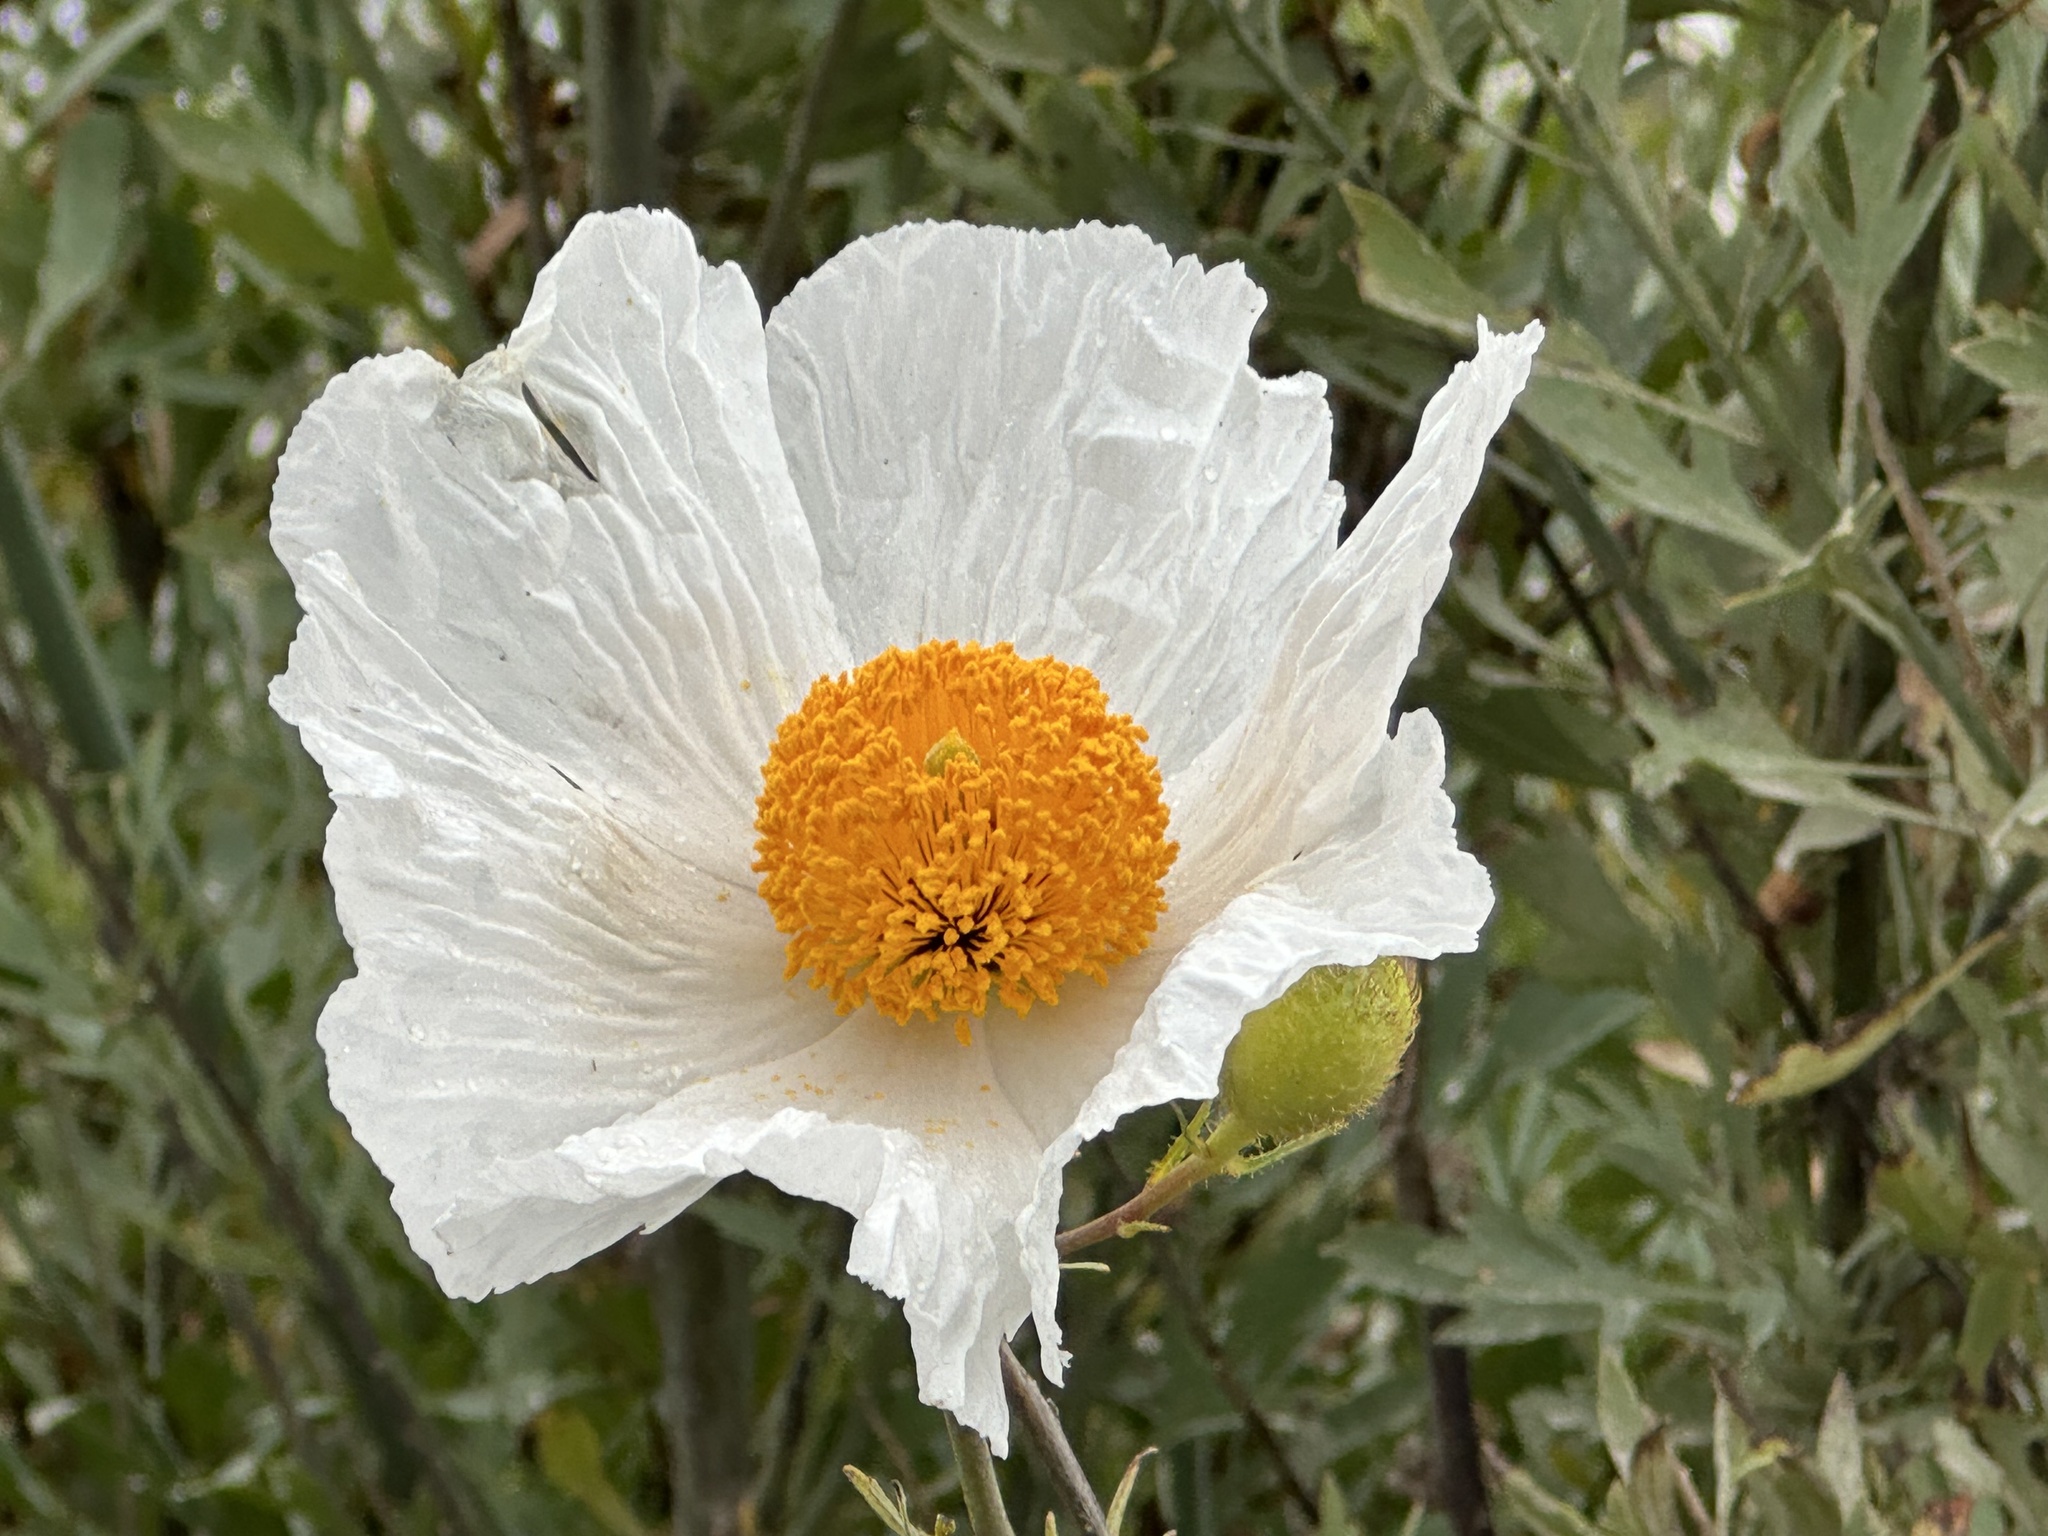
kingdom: Plantae
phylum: Tracheophyta
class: Magnoliopsida
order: Ranunculales
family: Papaveraceae
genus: Romneya
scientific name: Romneya trichocalyx
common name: Hairy matilija-poppy
